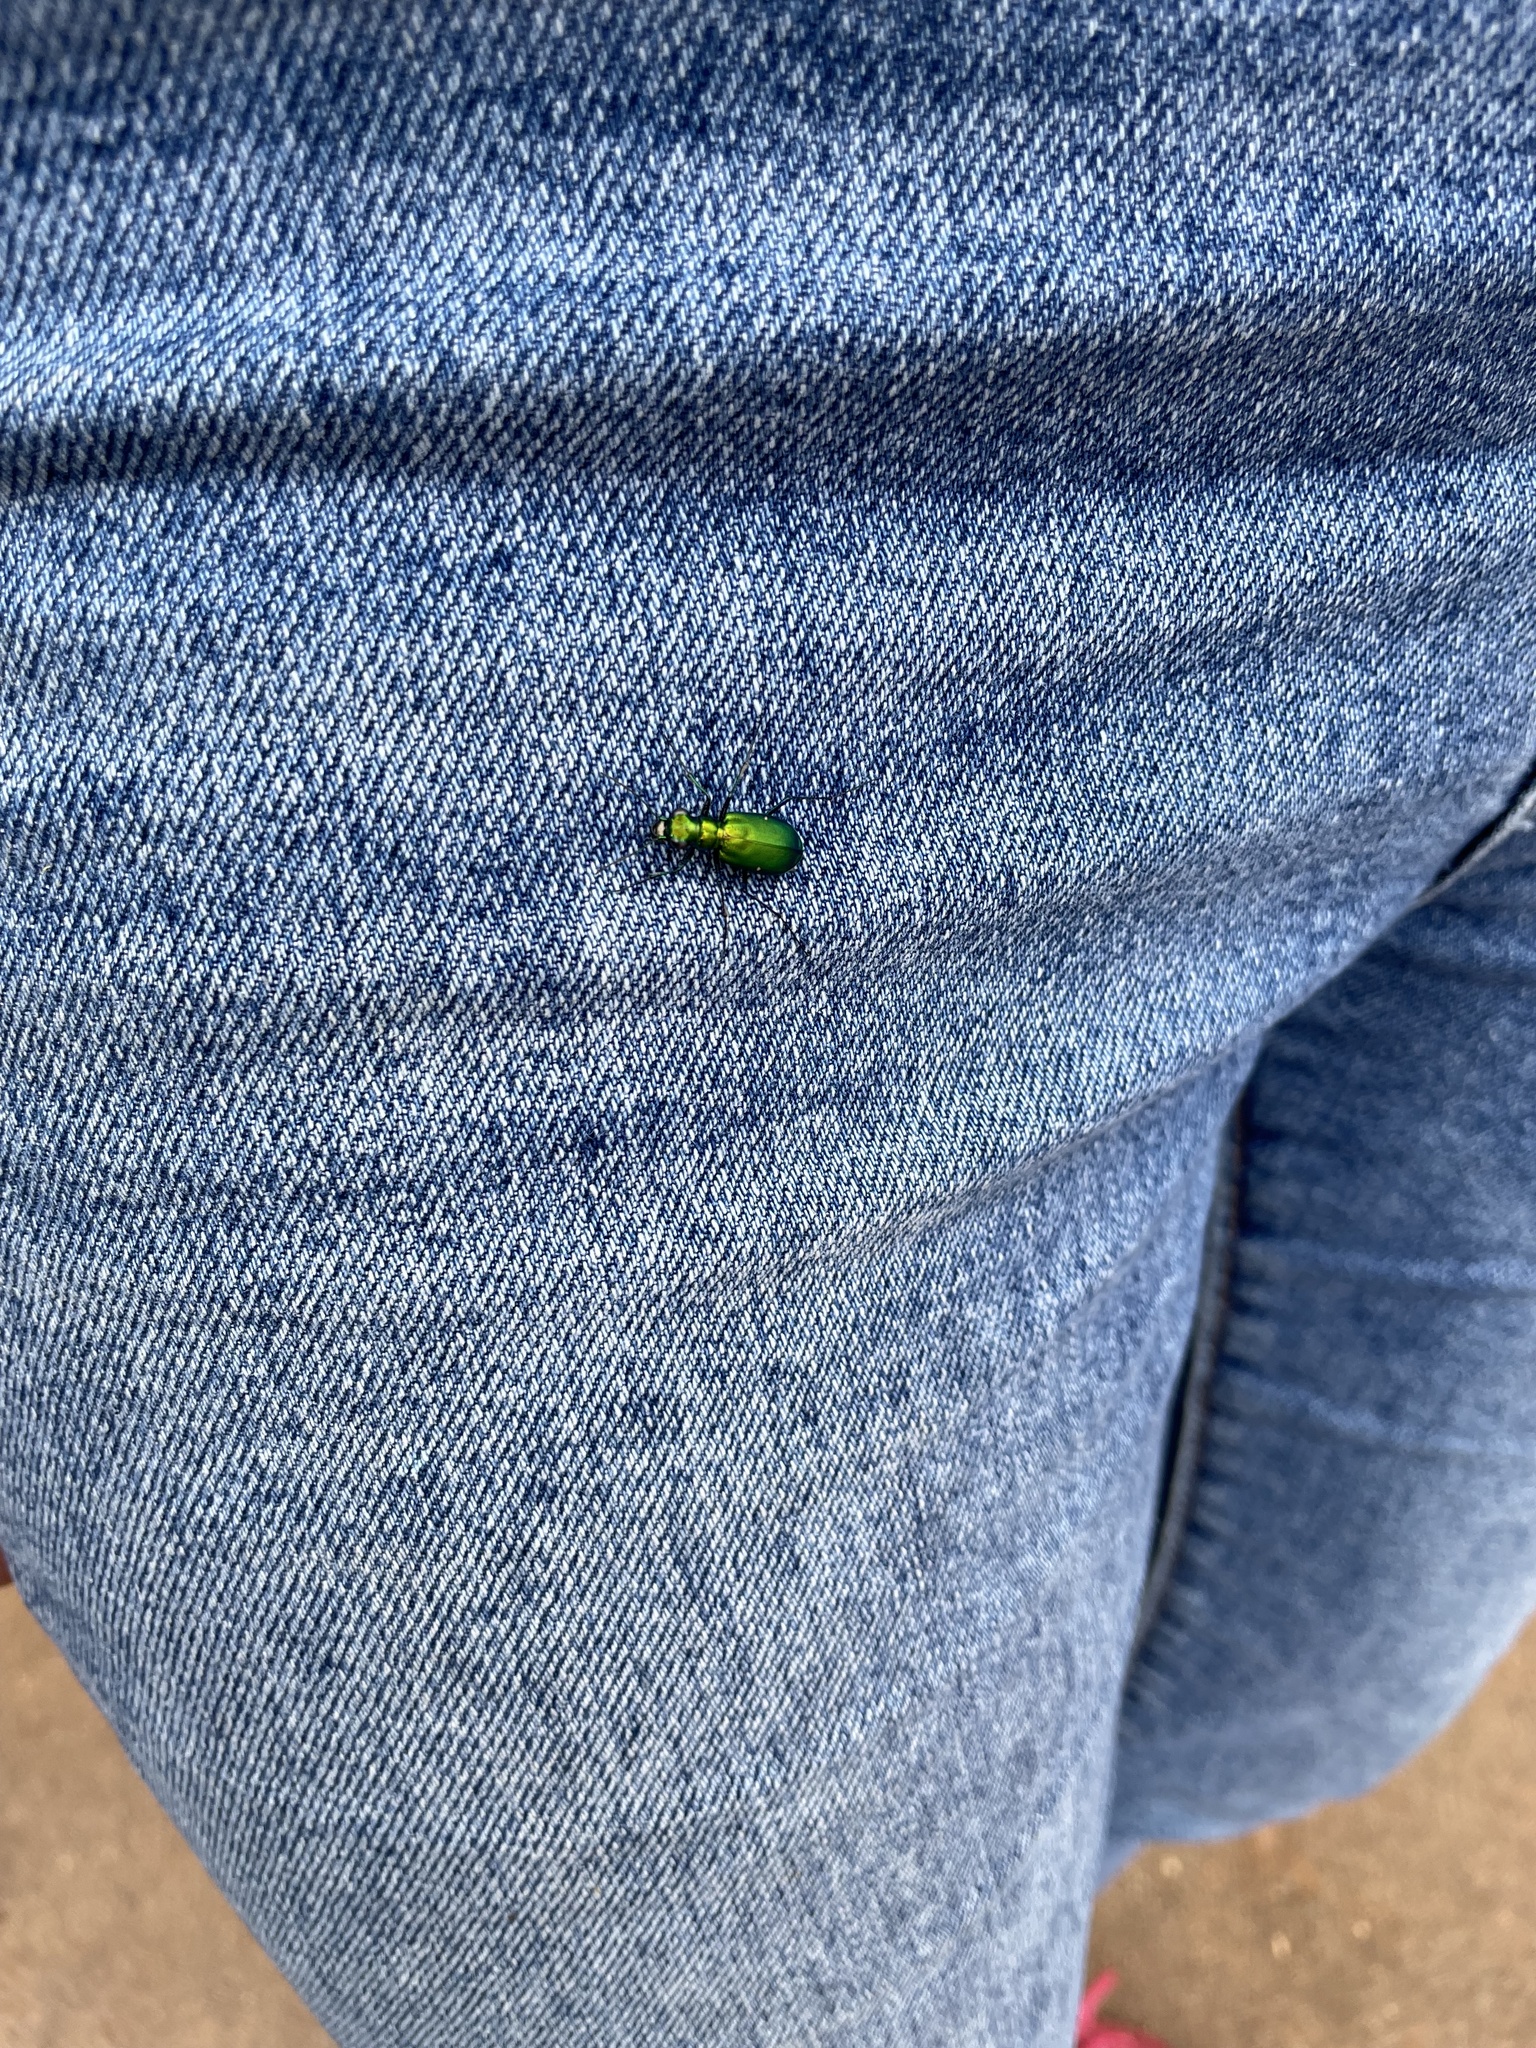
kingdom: Animalia
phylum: Arthropoda
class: Insecta
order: Coleoptera
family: Carabidae
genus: Cicindela
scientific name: Cicindela sexguttata
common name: Six-spotted tiger beetle
